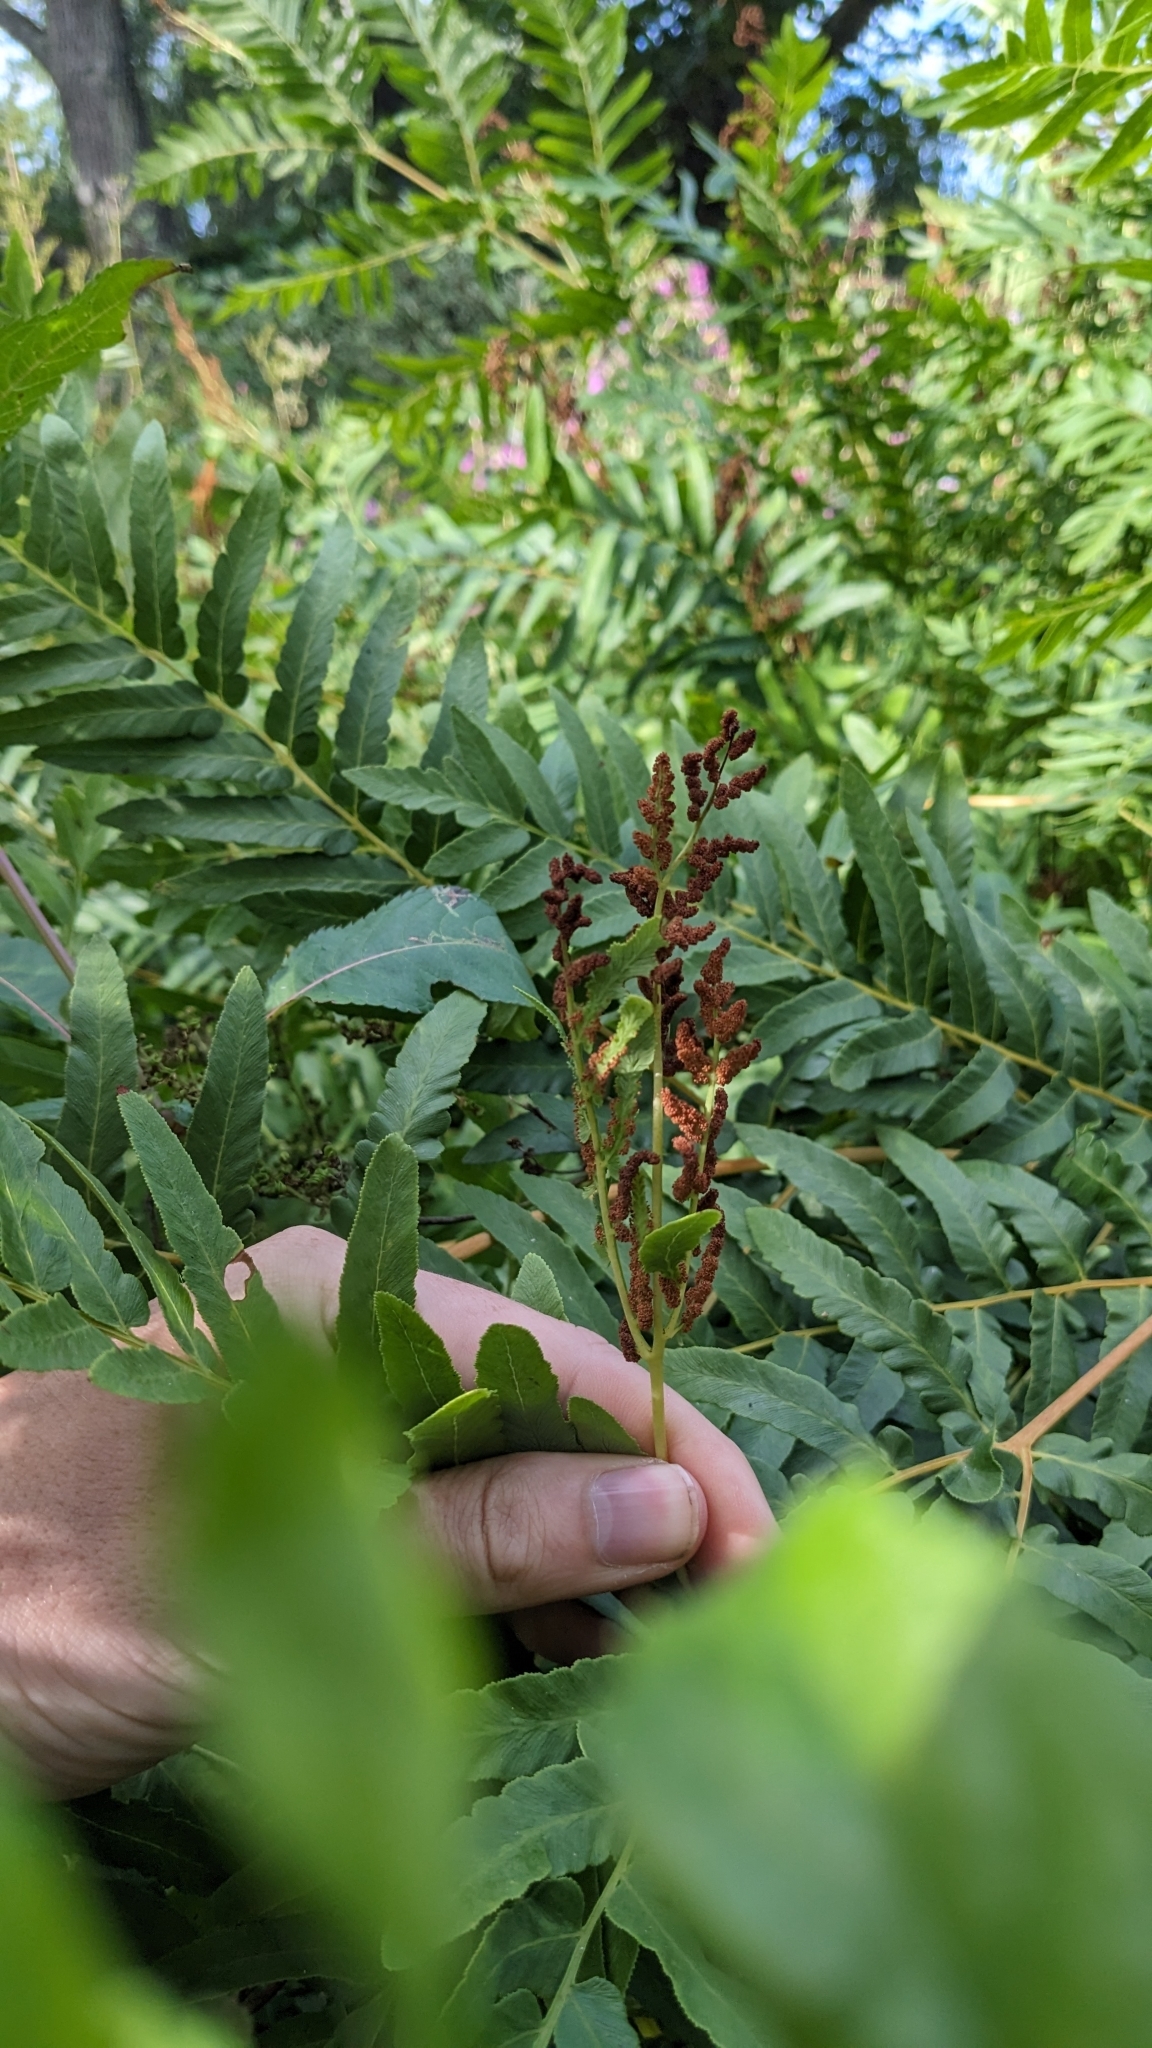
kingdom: Plantae
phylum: Tracheophyta
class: Polypodiopsida
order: Osmundales
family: Osmundaceae
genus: Osmunda
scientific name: Osmunda regalis
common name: Royal fern
